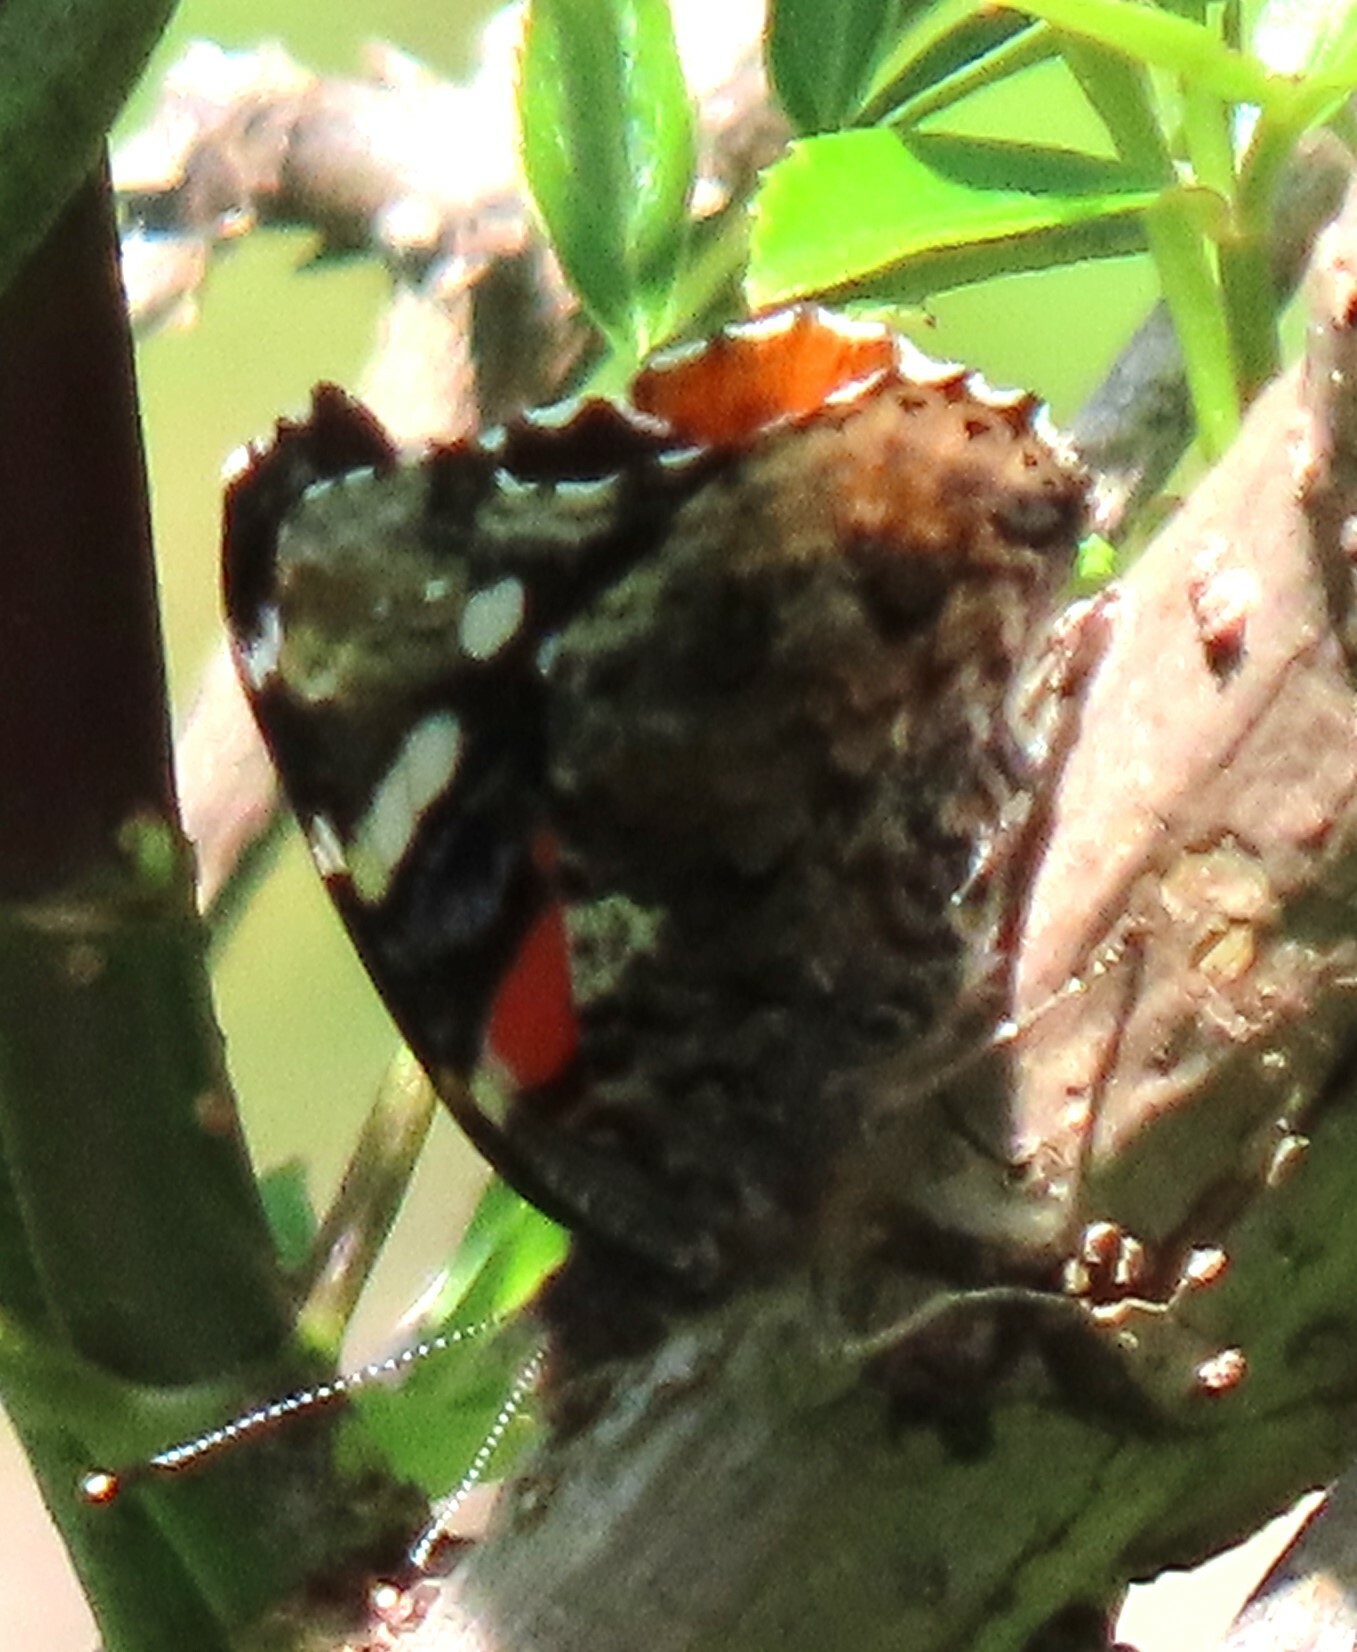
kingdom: Animalia
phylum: Arthropoda
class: Insecta
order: Lepidoptera
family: Nymphalidae
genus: Vanessa
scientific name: Vanessa atalanta
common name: Red admiral
